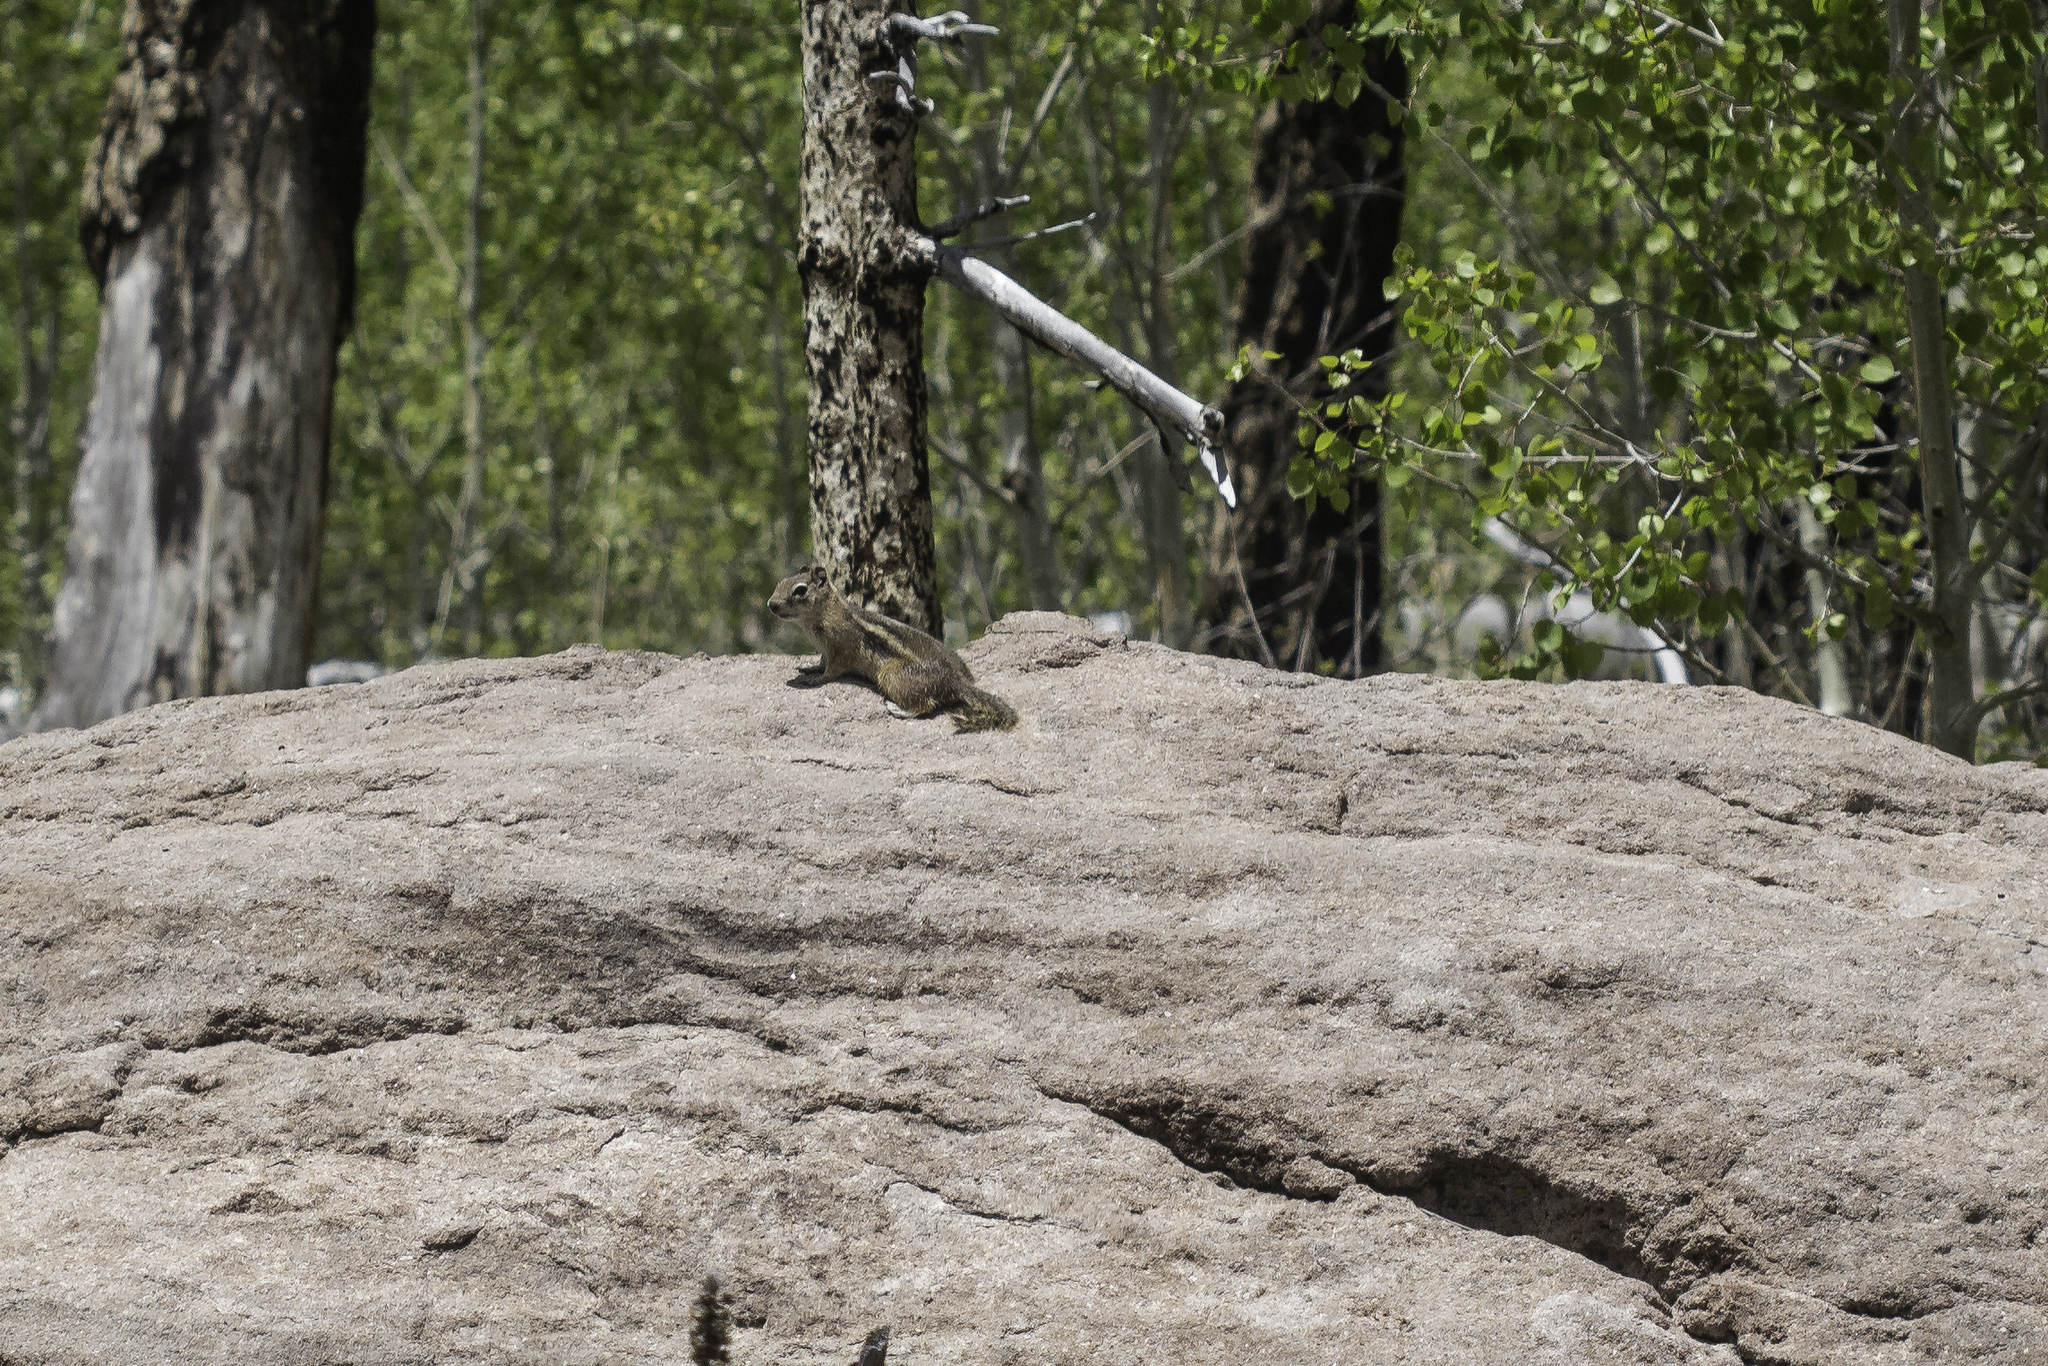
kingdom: Animalia
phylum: Chordata
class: Mammalia
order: Rodentia
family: Sciuridae
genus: Callospermophilus
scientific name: Callospermophilus lateralis
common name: Golden-mantled ground squirrel
